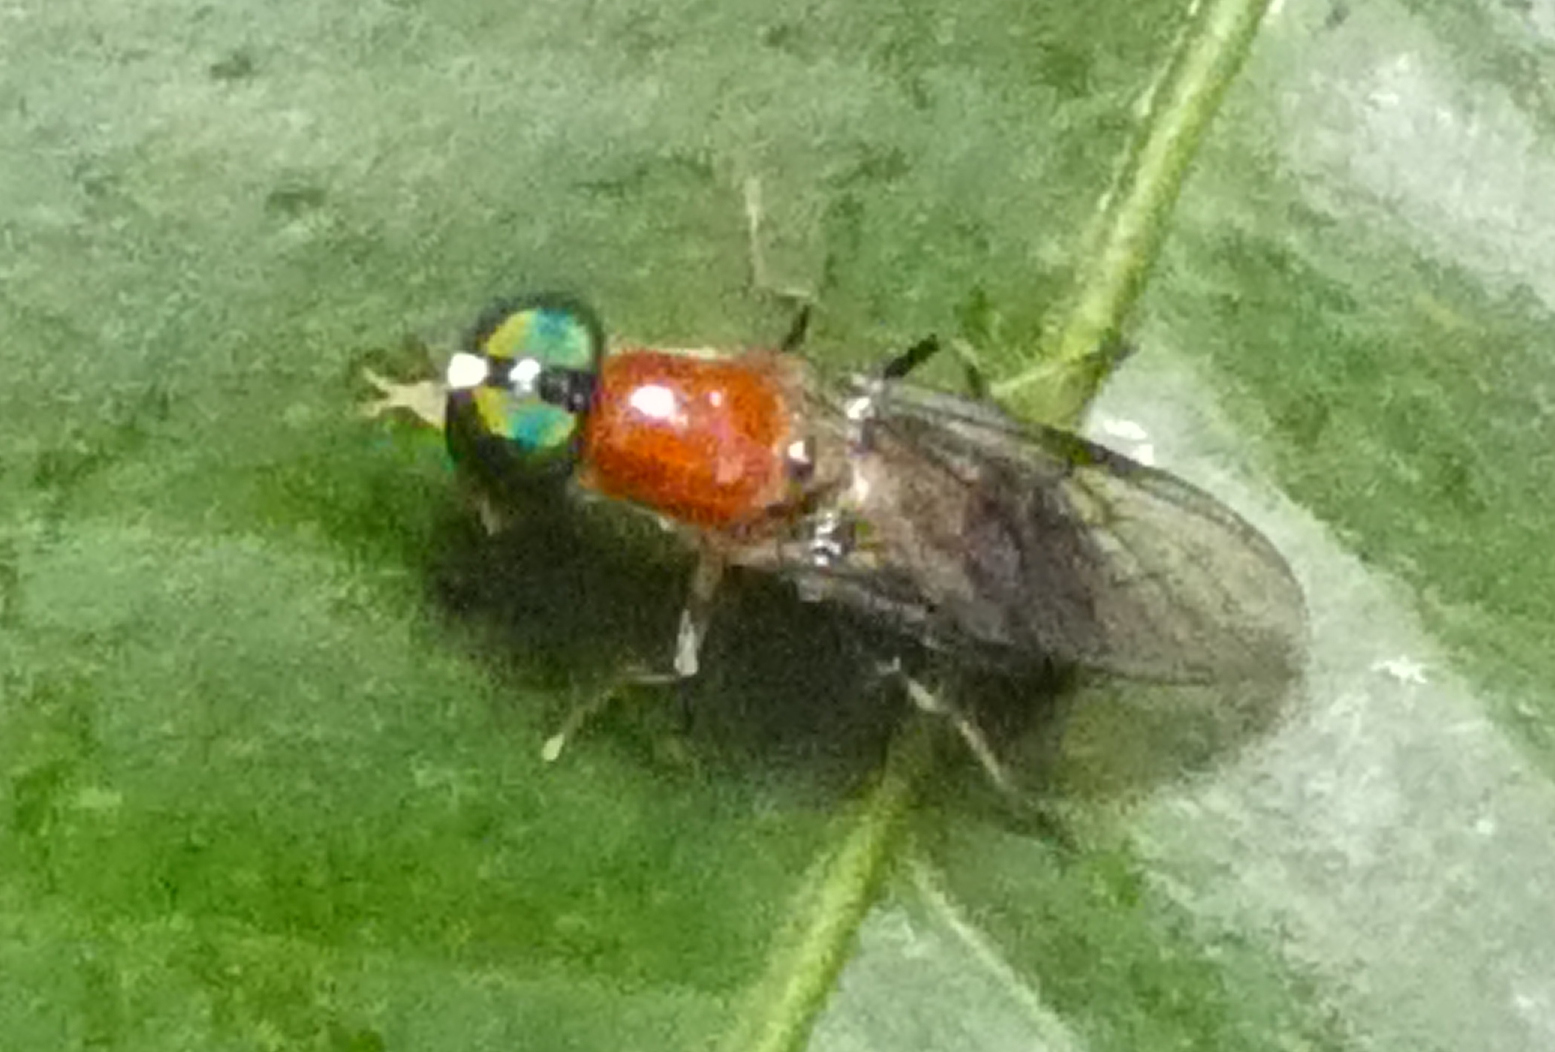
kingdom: Animalia
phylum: Arthropoda
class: Insecta
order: Diptera
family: Stratiomyidae
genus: Sargus
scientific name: Sargus thoracicus
